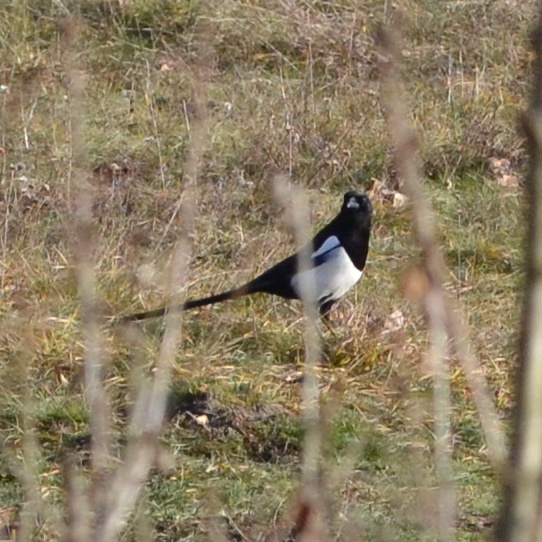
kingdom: Animalia
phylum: Chordata
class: Aves
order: Passeriformes
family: Corvidae
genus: Pica
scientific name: Pica pica
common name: Eurasian magpie
